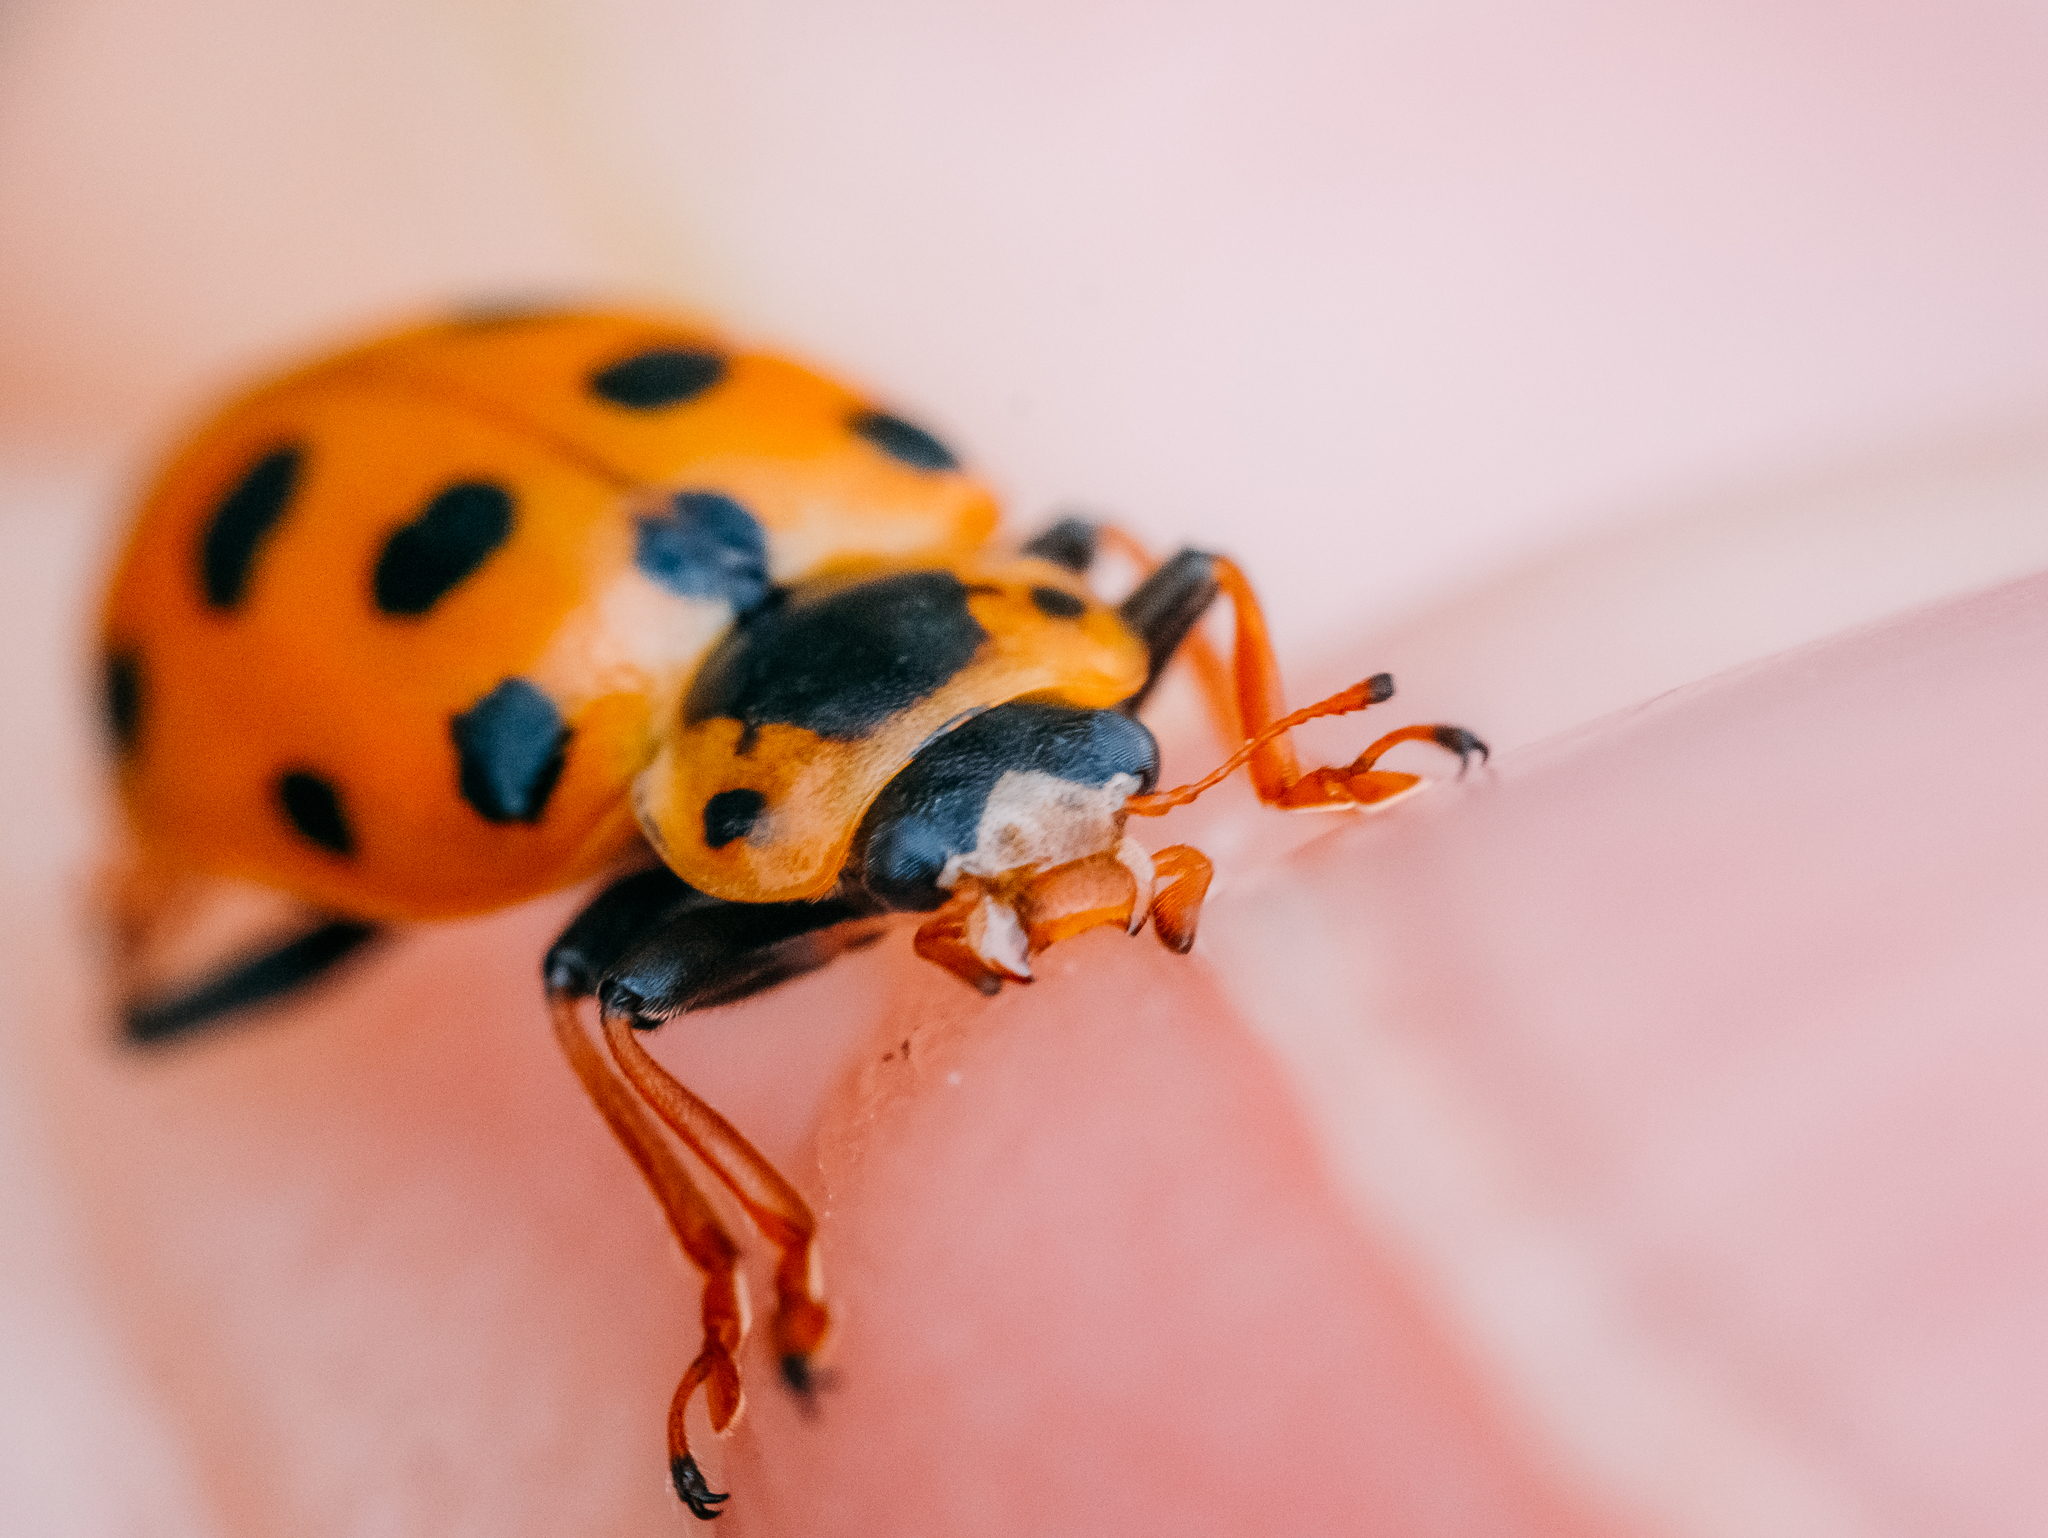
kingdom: Animalia
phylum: Arthropoda
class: Insecta
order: Coleoptera
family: Coccinellidae
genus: Hippodamia
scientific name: Hippodamia tredecimpunctata
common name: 13-spot ladybird
